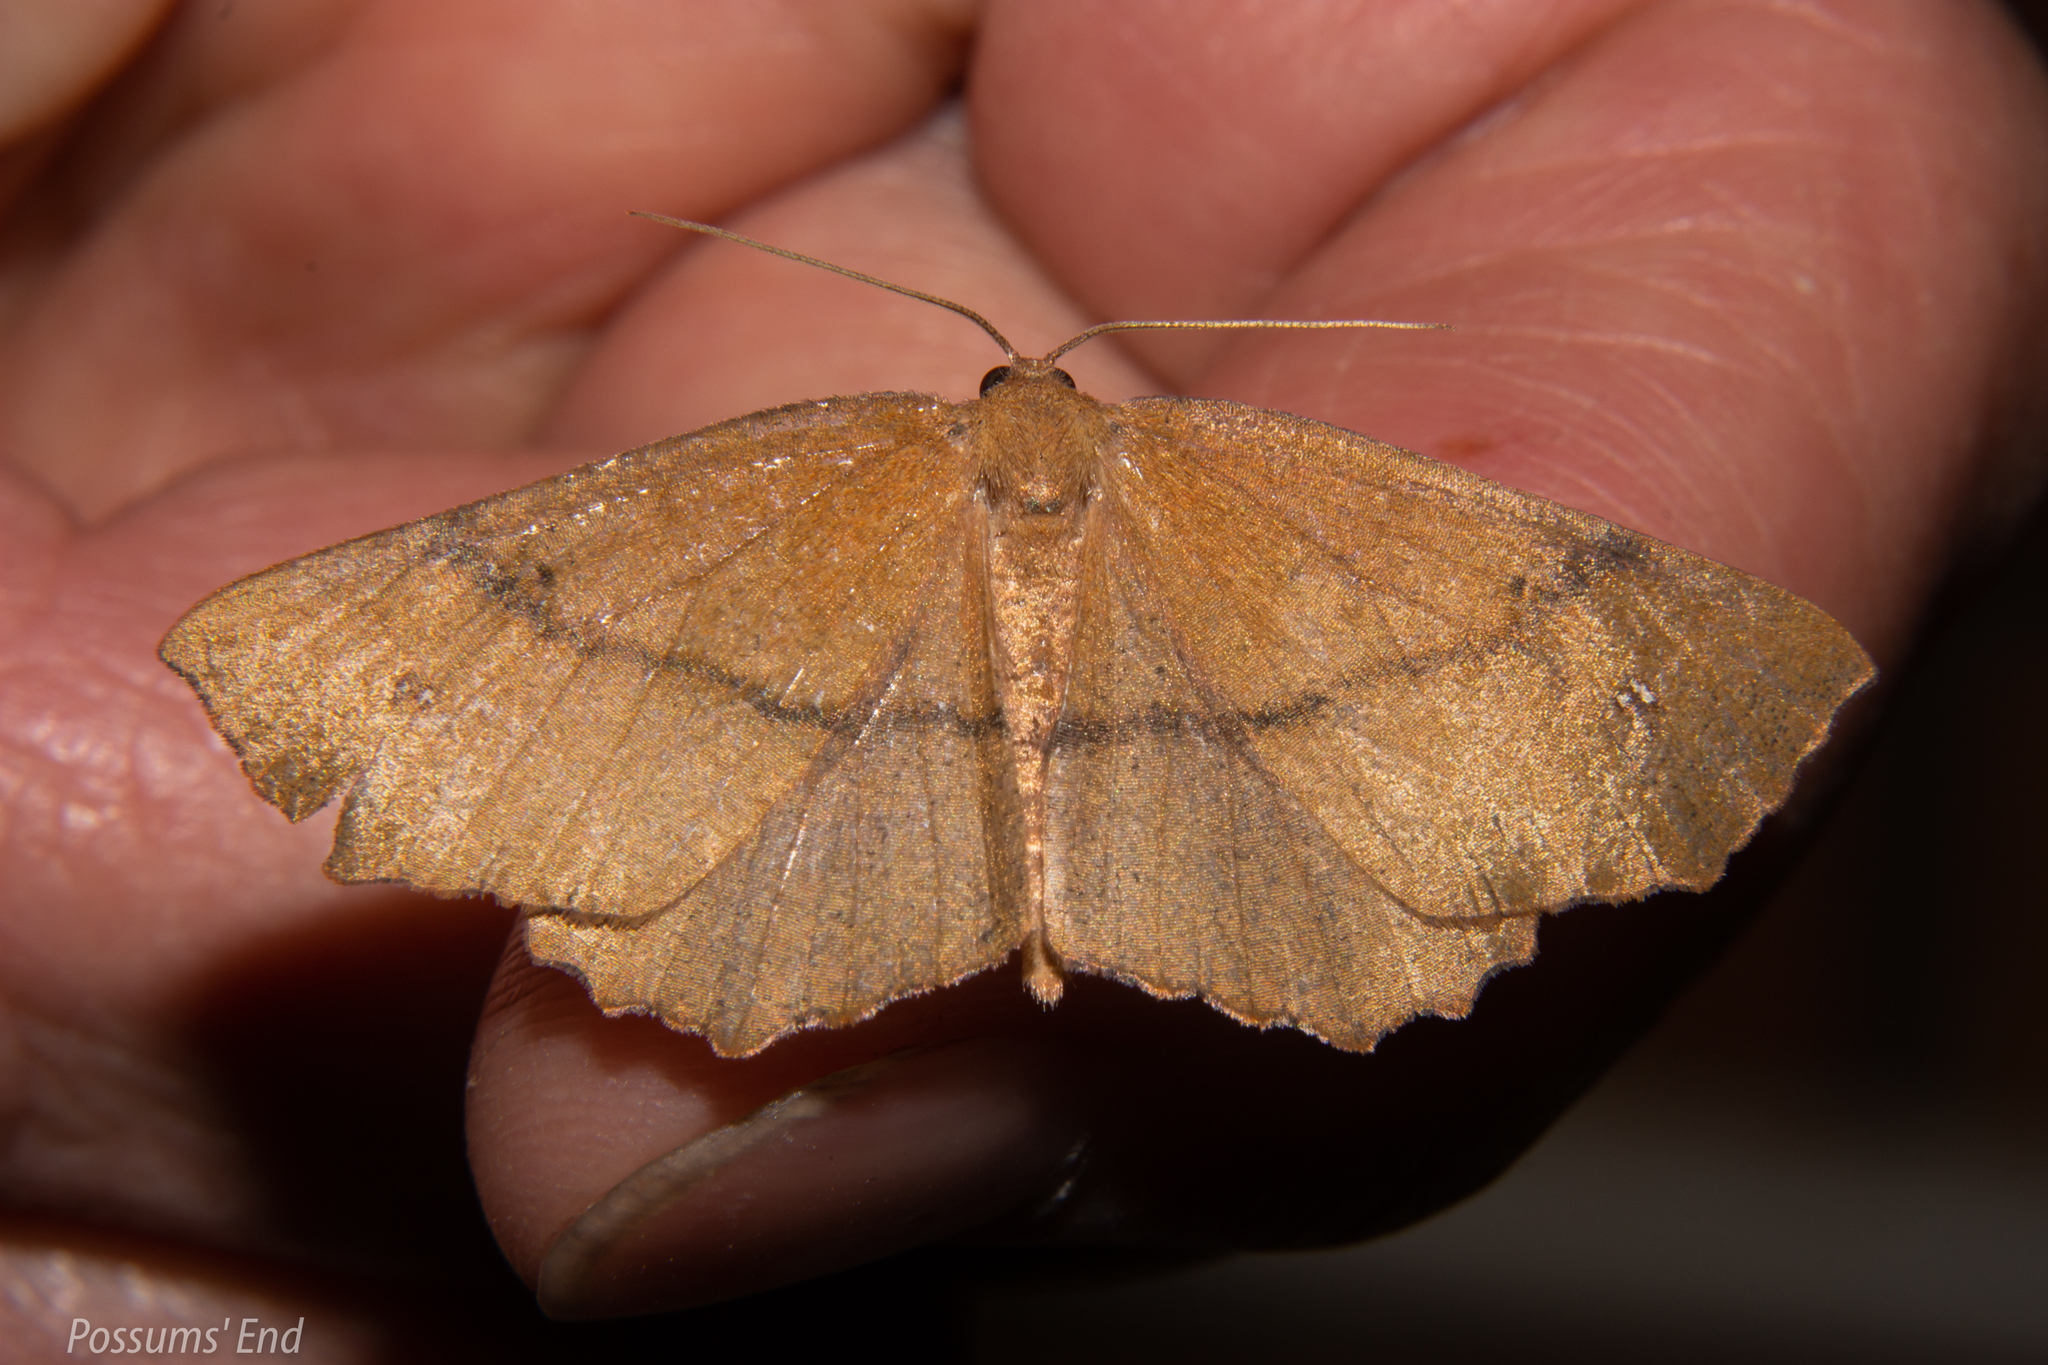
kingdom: Animalia
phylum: Arthropoda
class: Insecta
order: Lepidoptera
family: Geometridae
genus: Xyridacma
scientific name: Xyridacma ustaria
